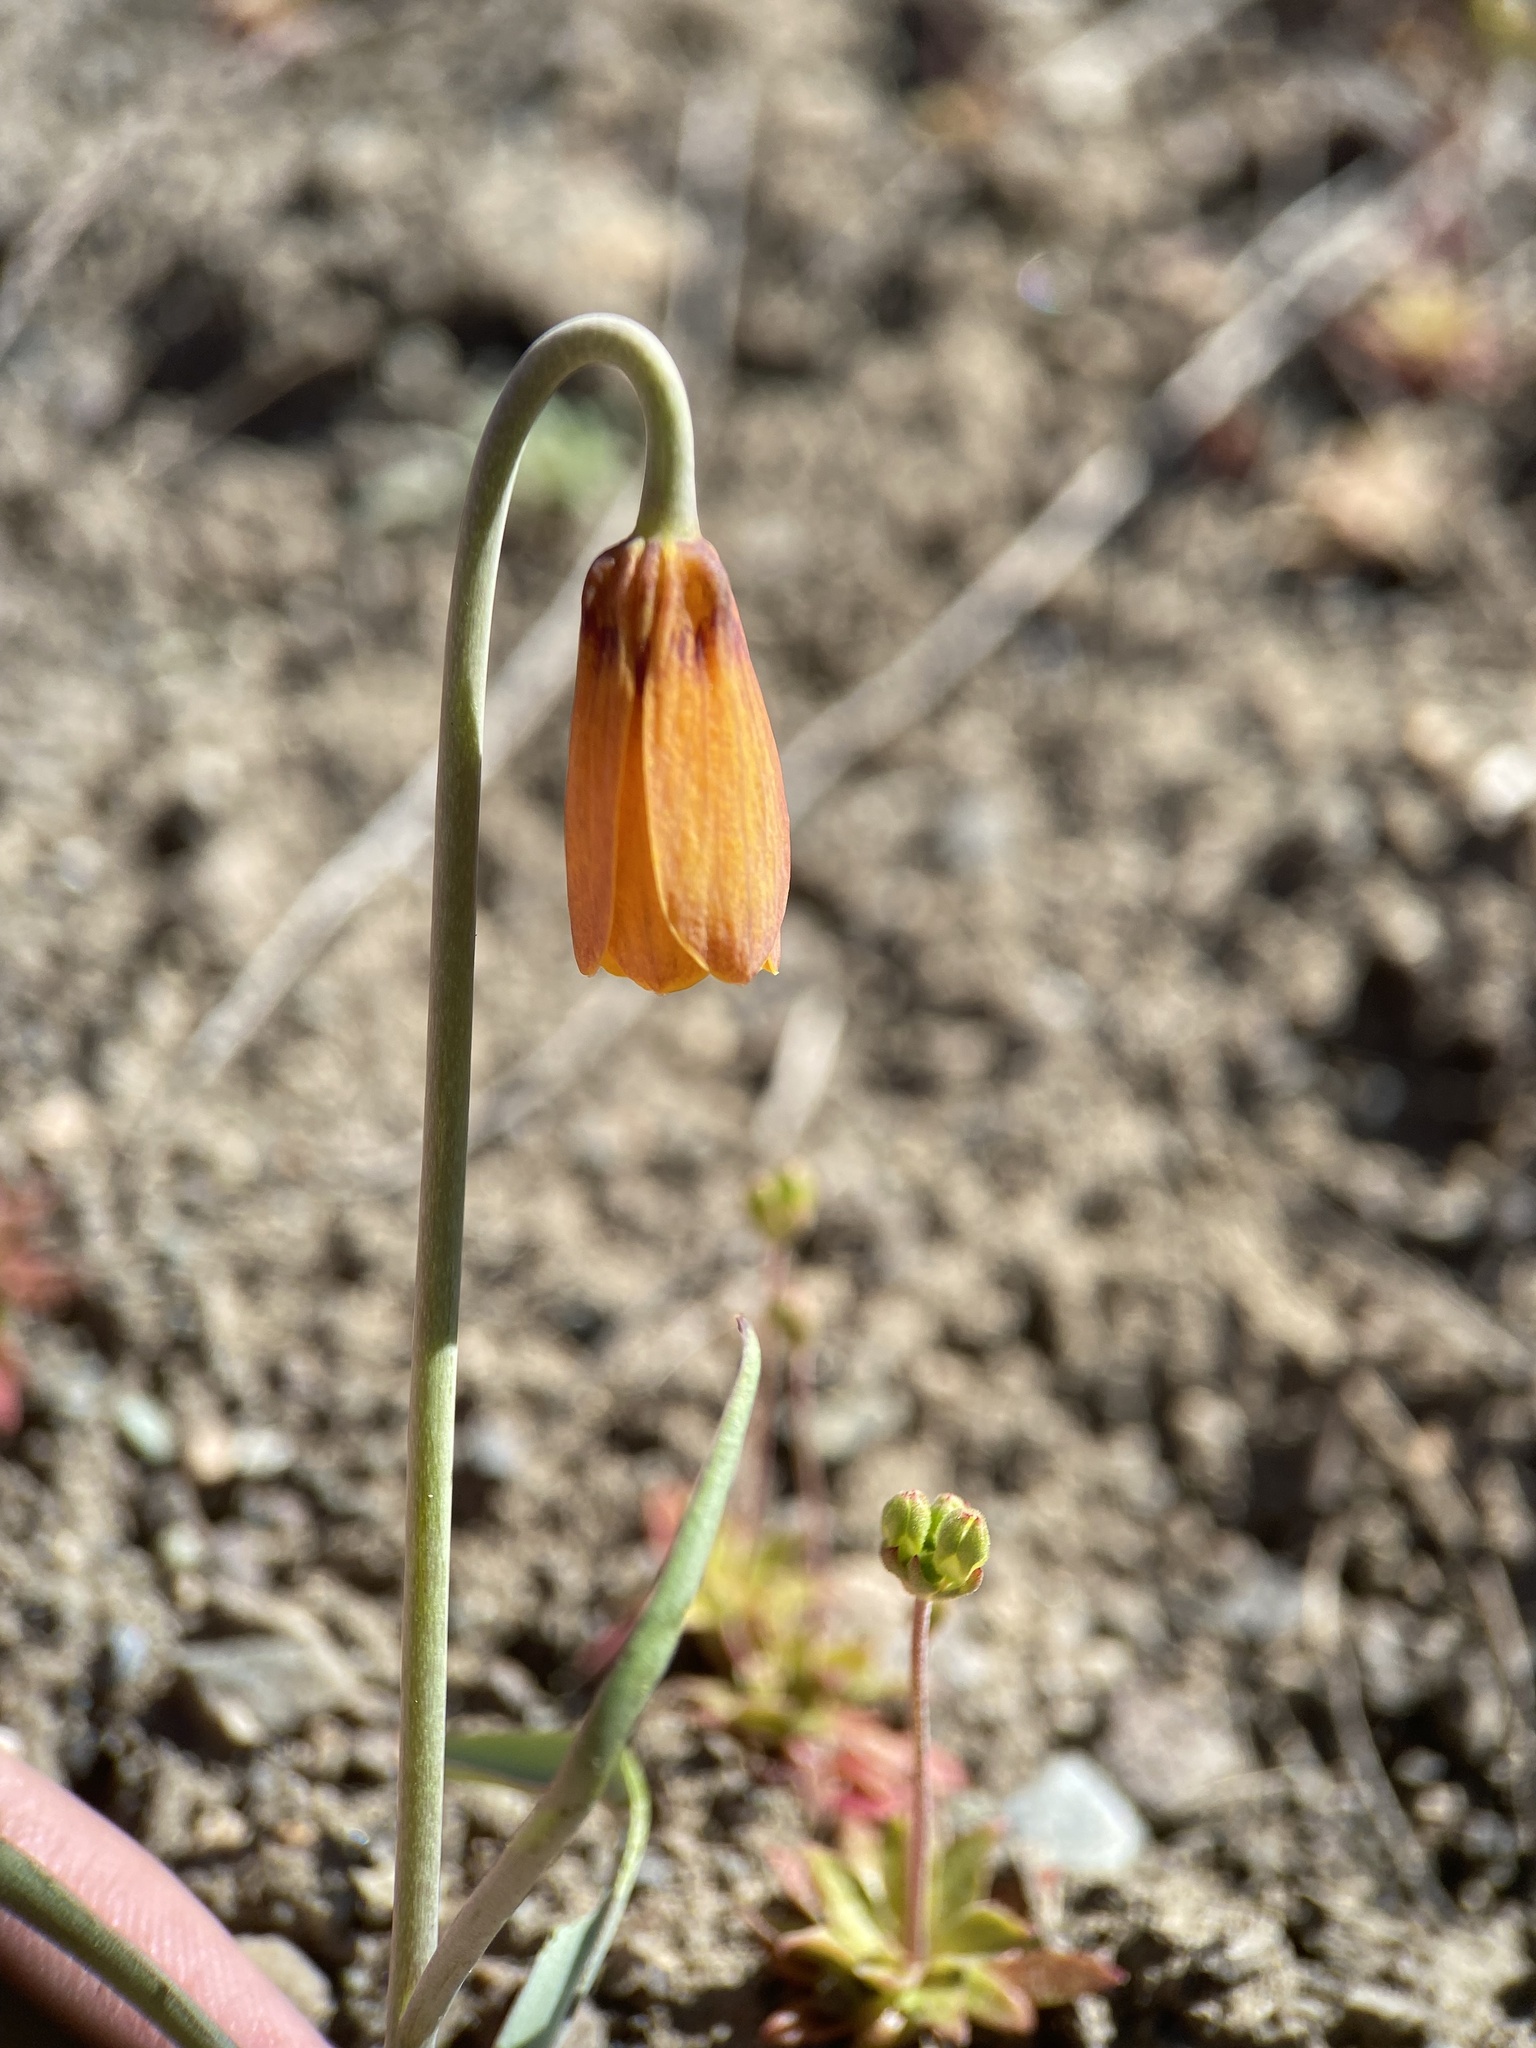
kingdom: Plantae
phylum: Tracheophyta
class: Liliopsida
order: Liliales
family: Liliaceae
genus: Fritillaria
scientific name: Fritillaria pudica
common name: Yellow fritillary
